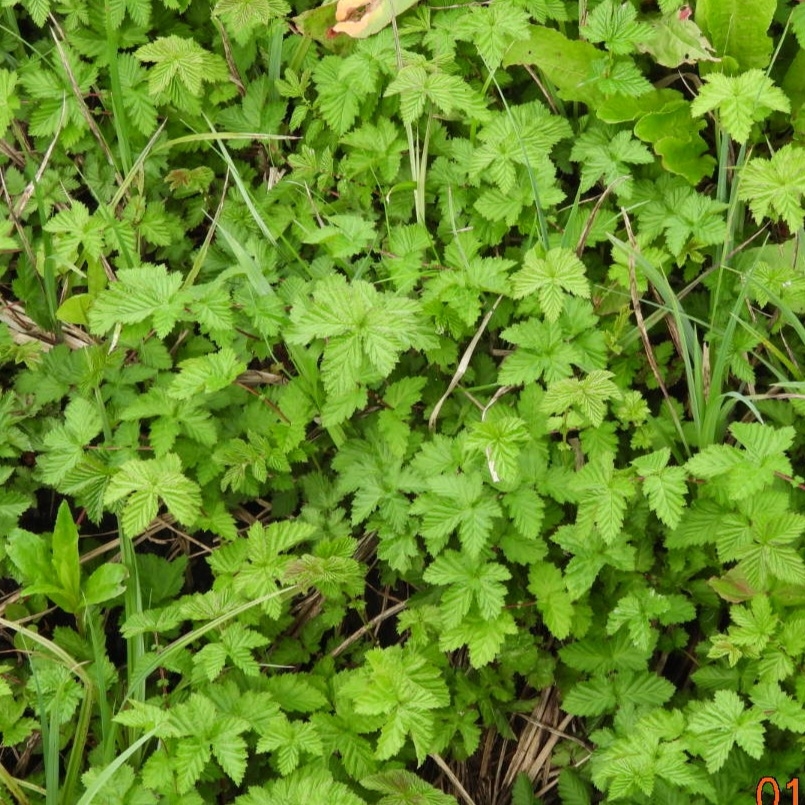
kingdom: Plantae
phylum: Tracheophyta
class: Magnoliopsida
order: Rosales
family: Rosaceae
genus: Filipendula
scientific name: Filipendula ulmaria
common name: Meadowsweet
